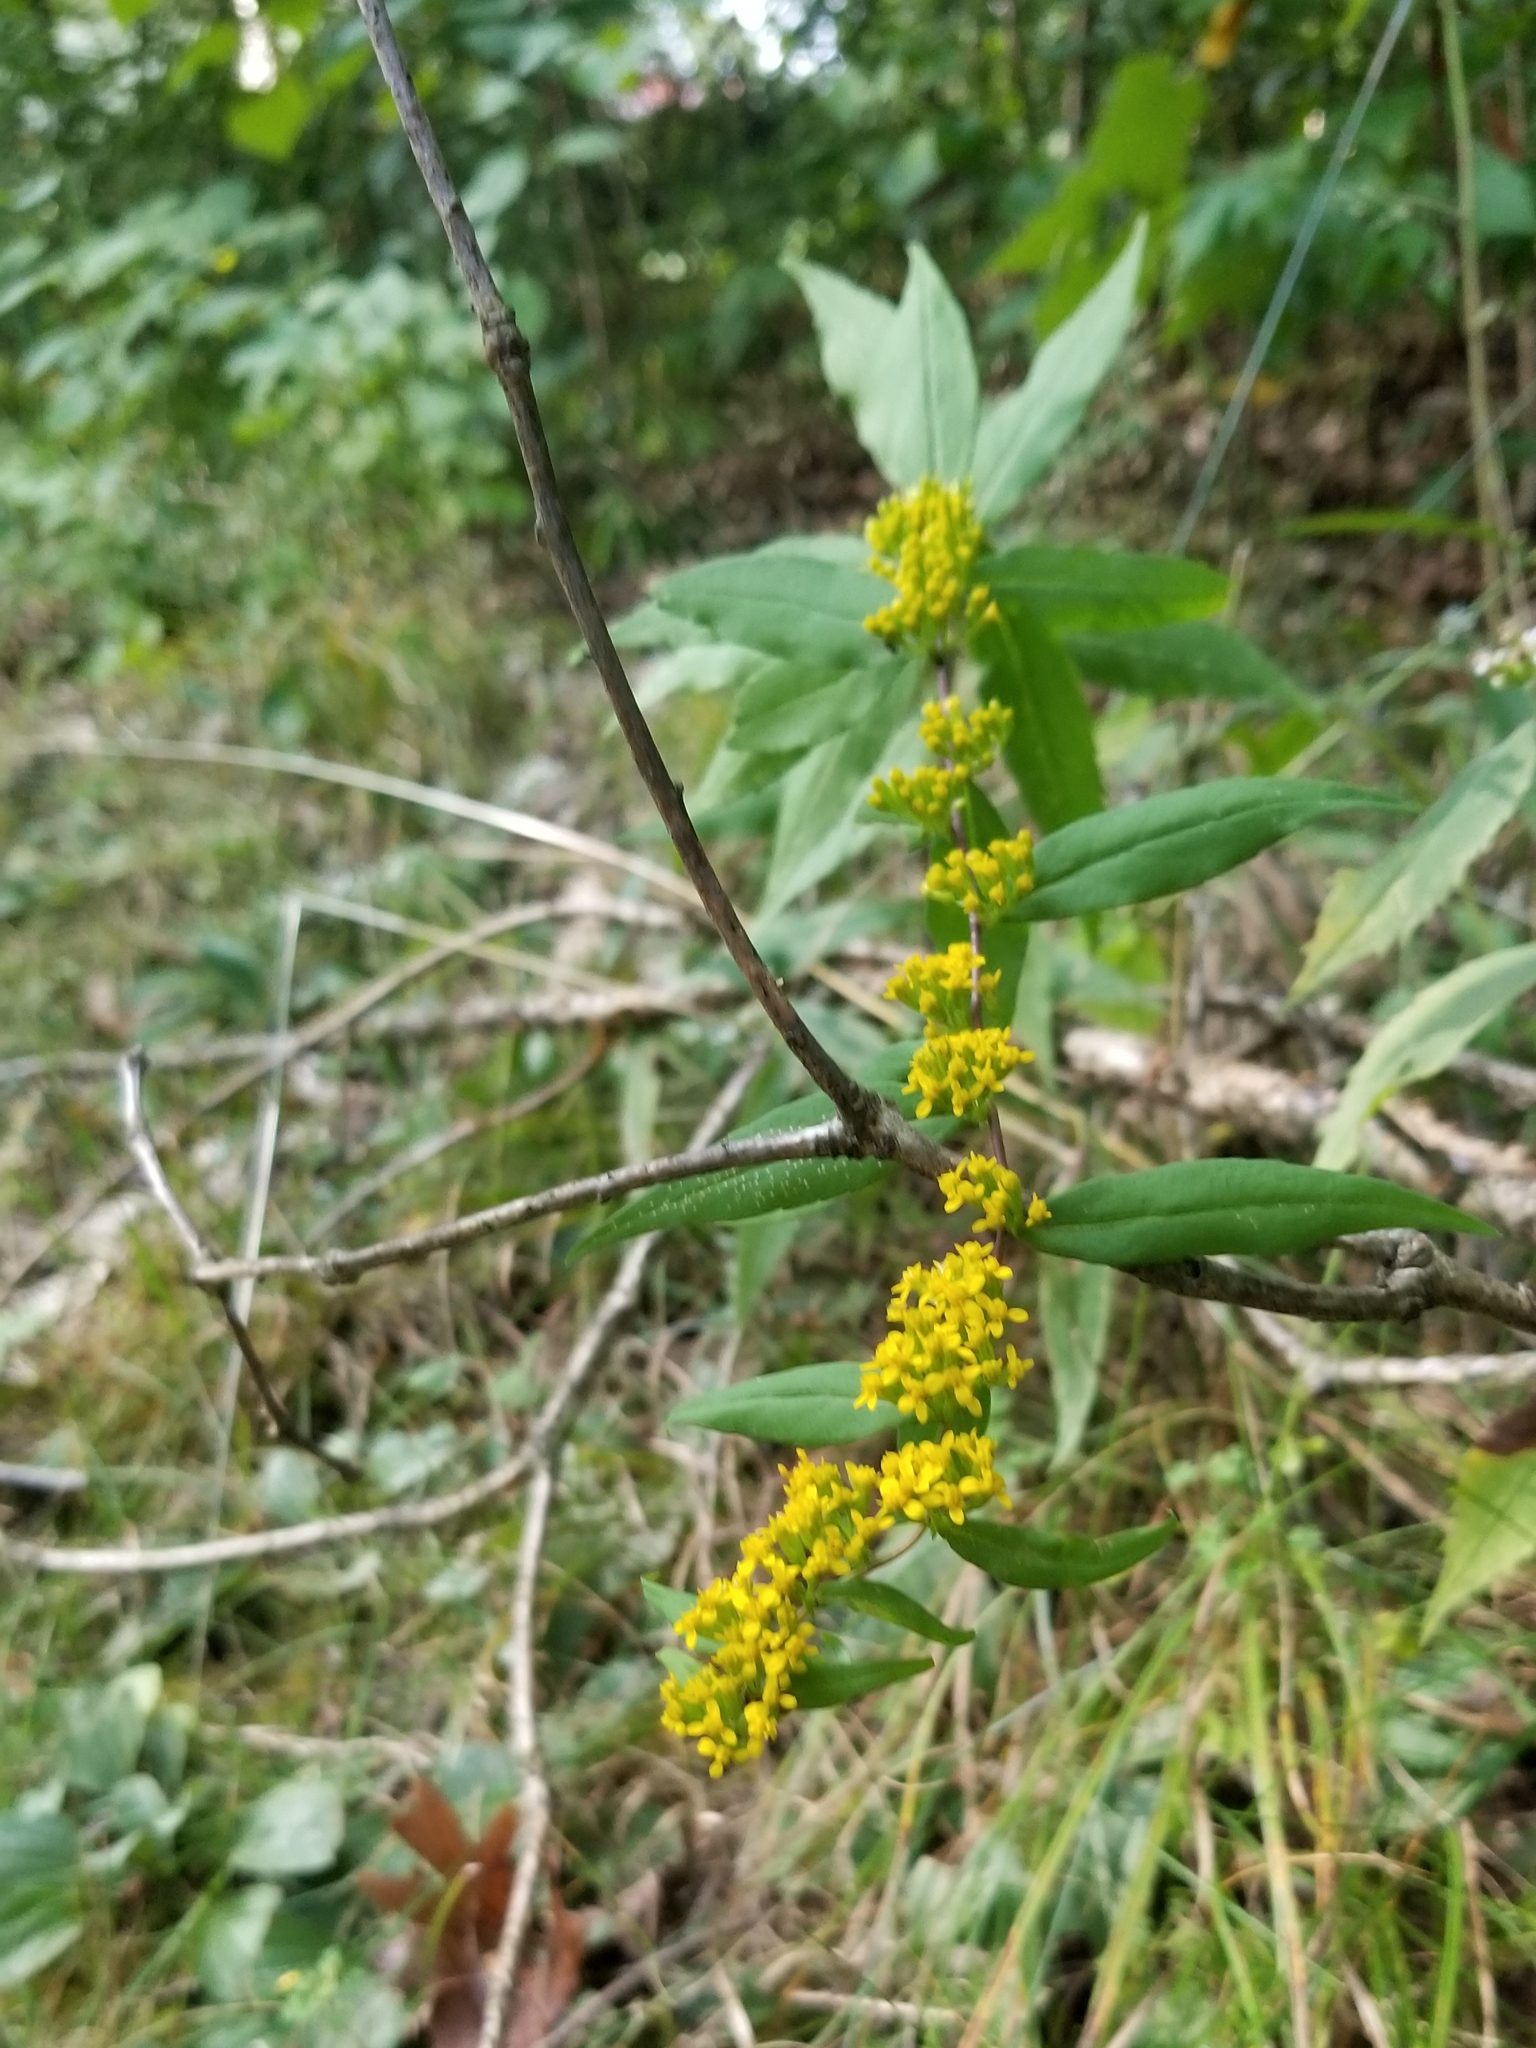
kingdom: Plantae
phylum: Tracheophyta
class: Magnoliopsida
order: Asterales
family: Asteraceae
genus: Solidago
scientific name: Solidago caesia
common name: Woodland goldenrod
